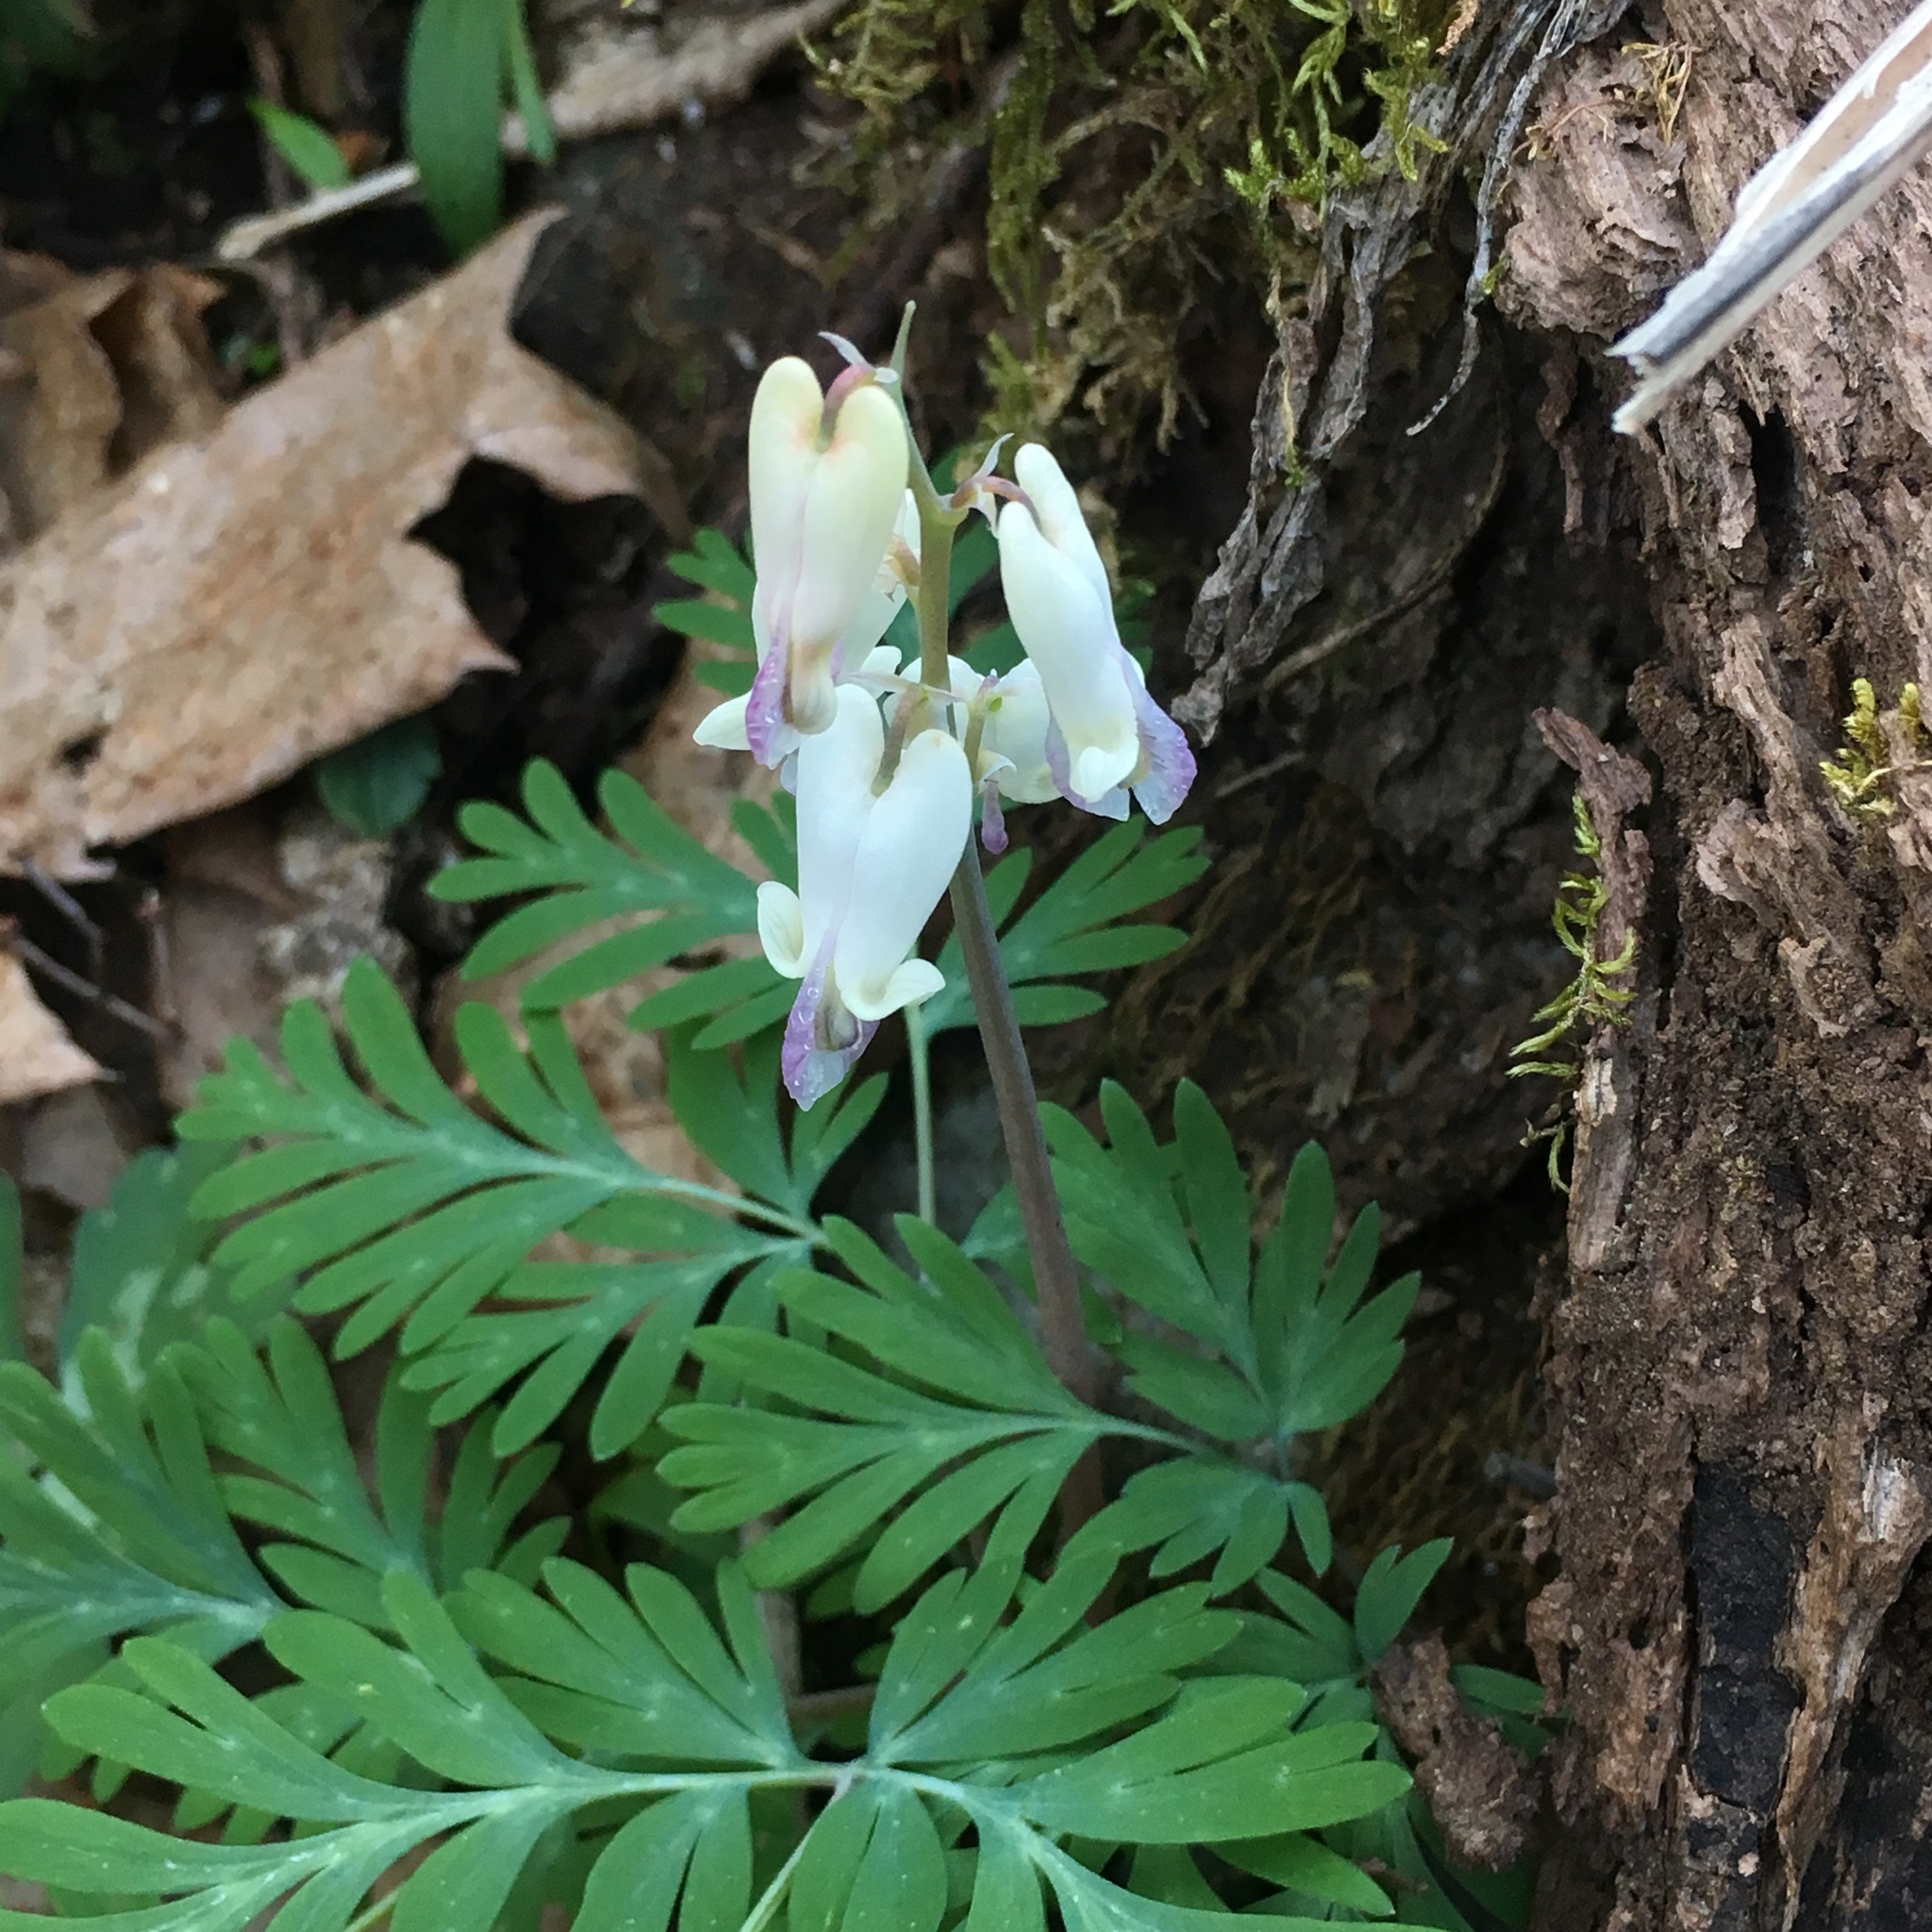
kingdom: Plantae
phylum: Tracheophyta
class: Magnoliopsida
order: Ranunculales
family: Papaveraceae
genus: Dicentra
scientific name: Dicentra canadensis
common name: Squirrel-corn
